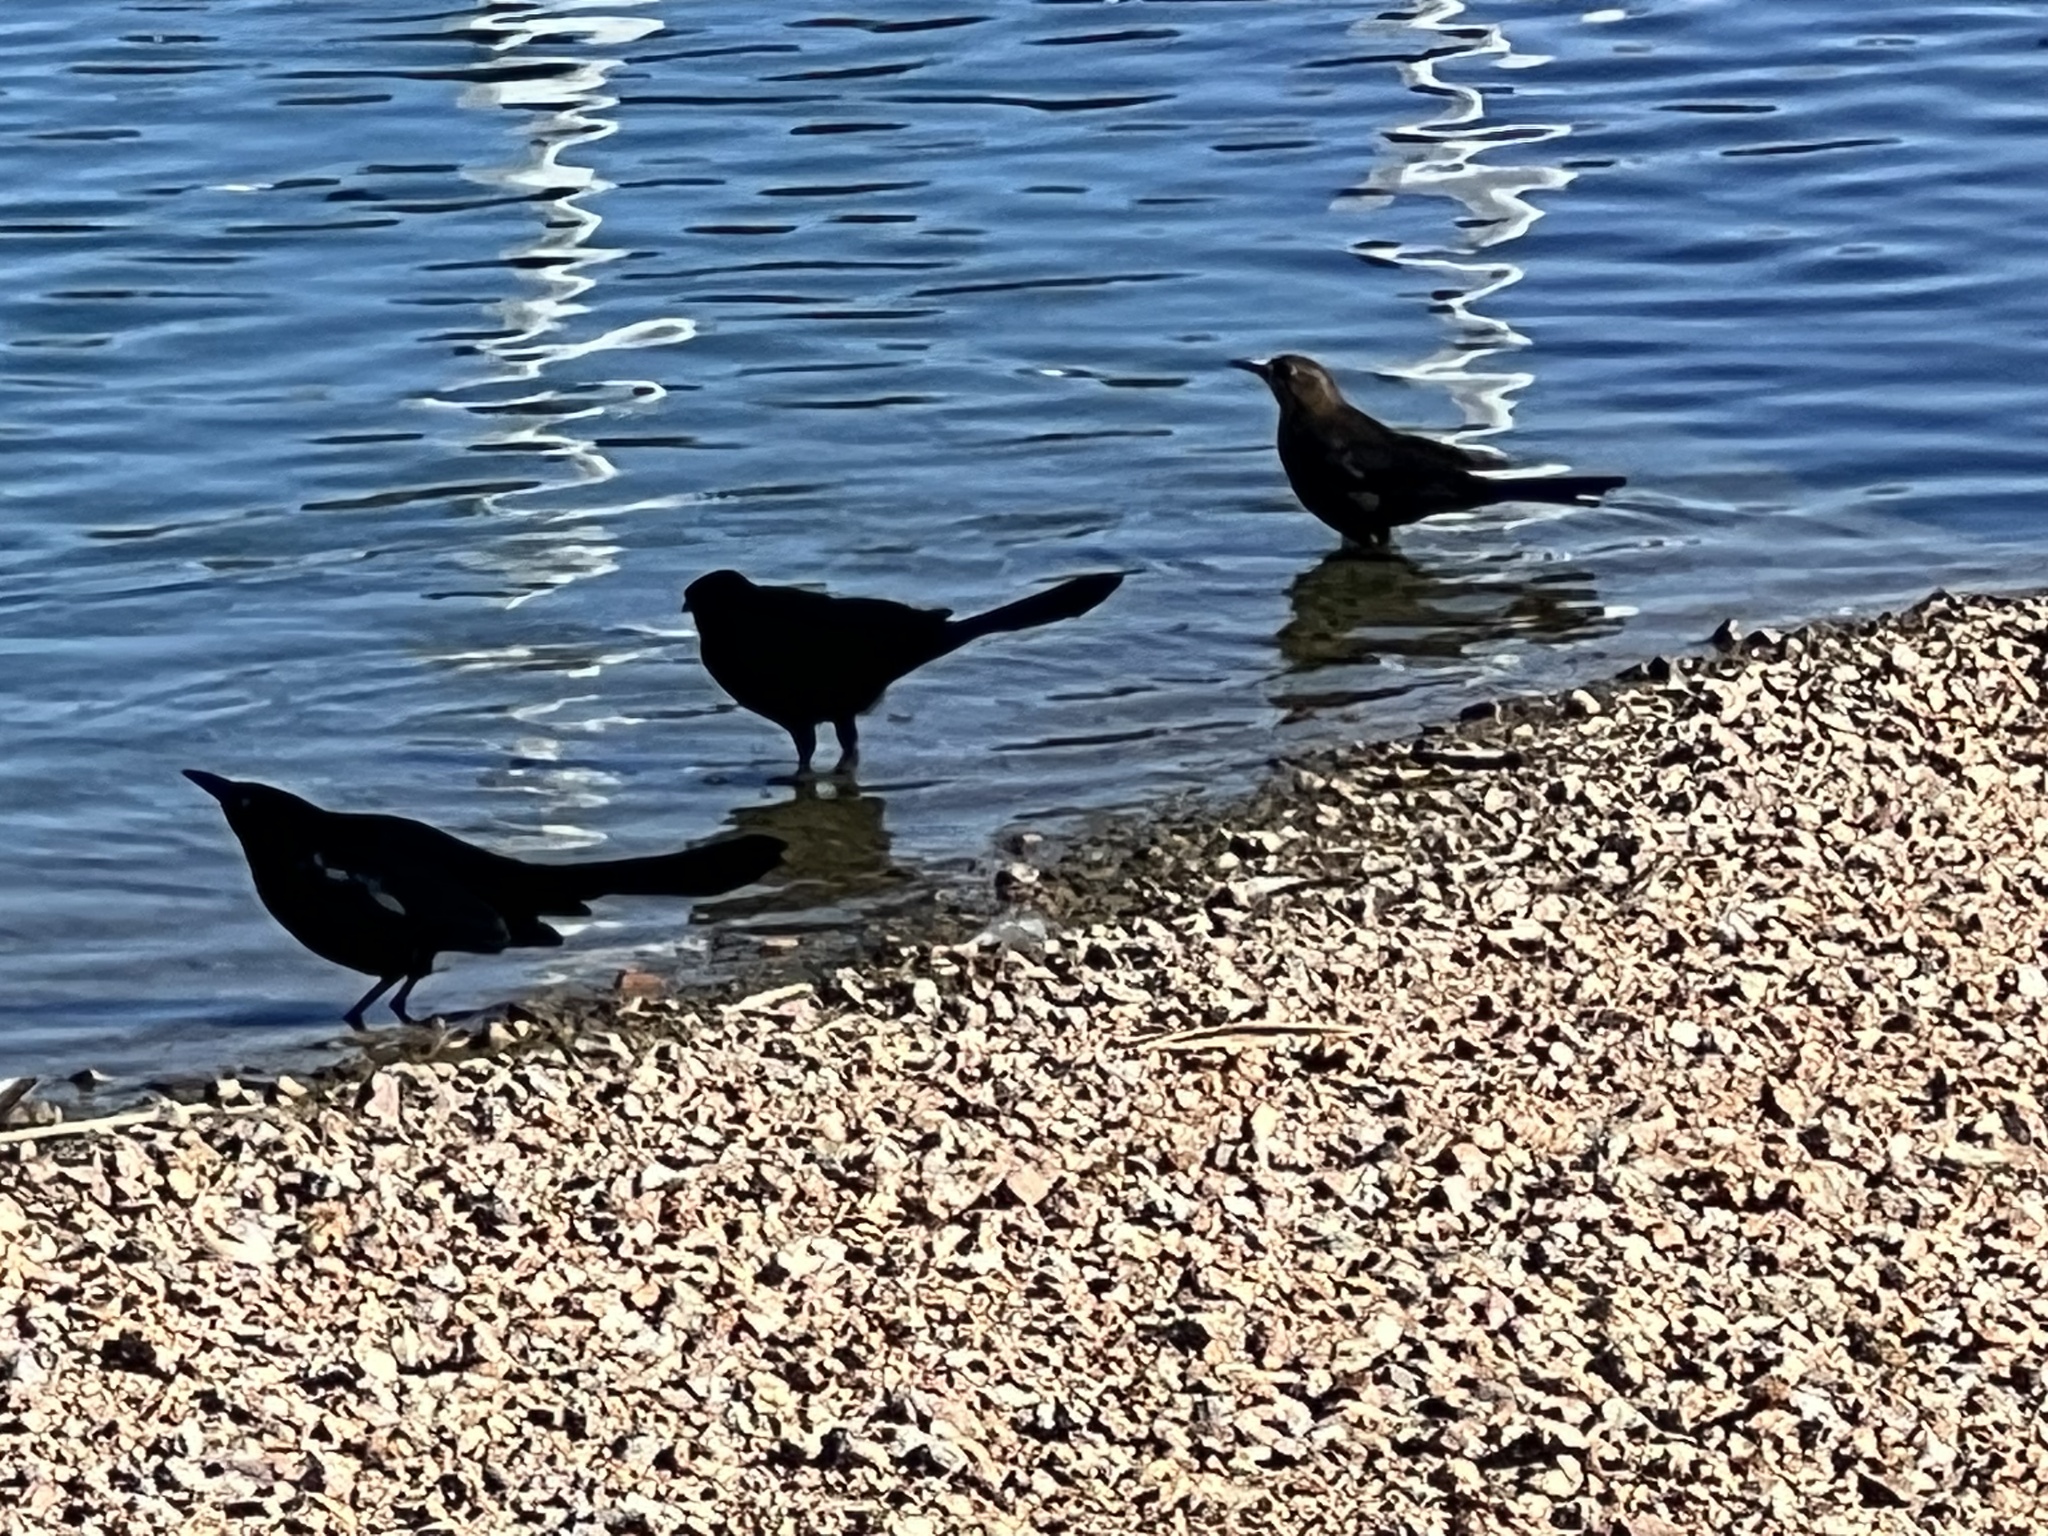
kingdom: Animalia
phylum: Chordata
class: Aves
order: Passeriformes
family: Icteridae
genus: Quiscalus
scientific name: Quiscalus mexicanus
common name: Great-tailed grackle
